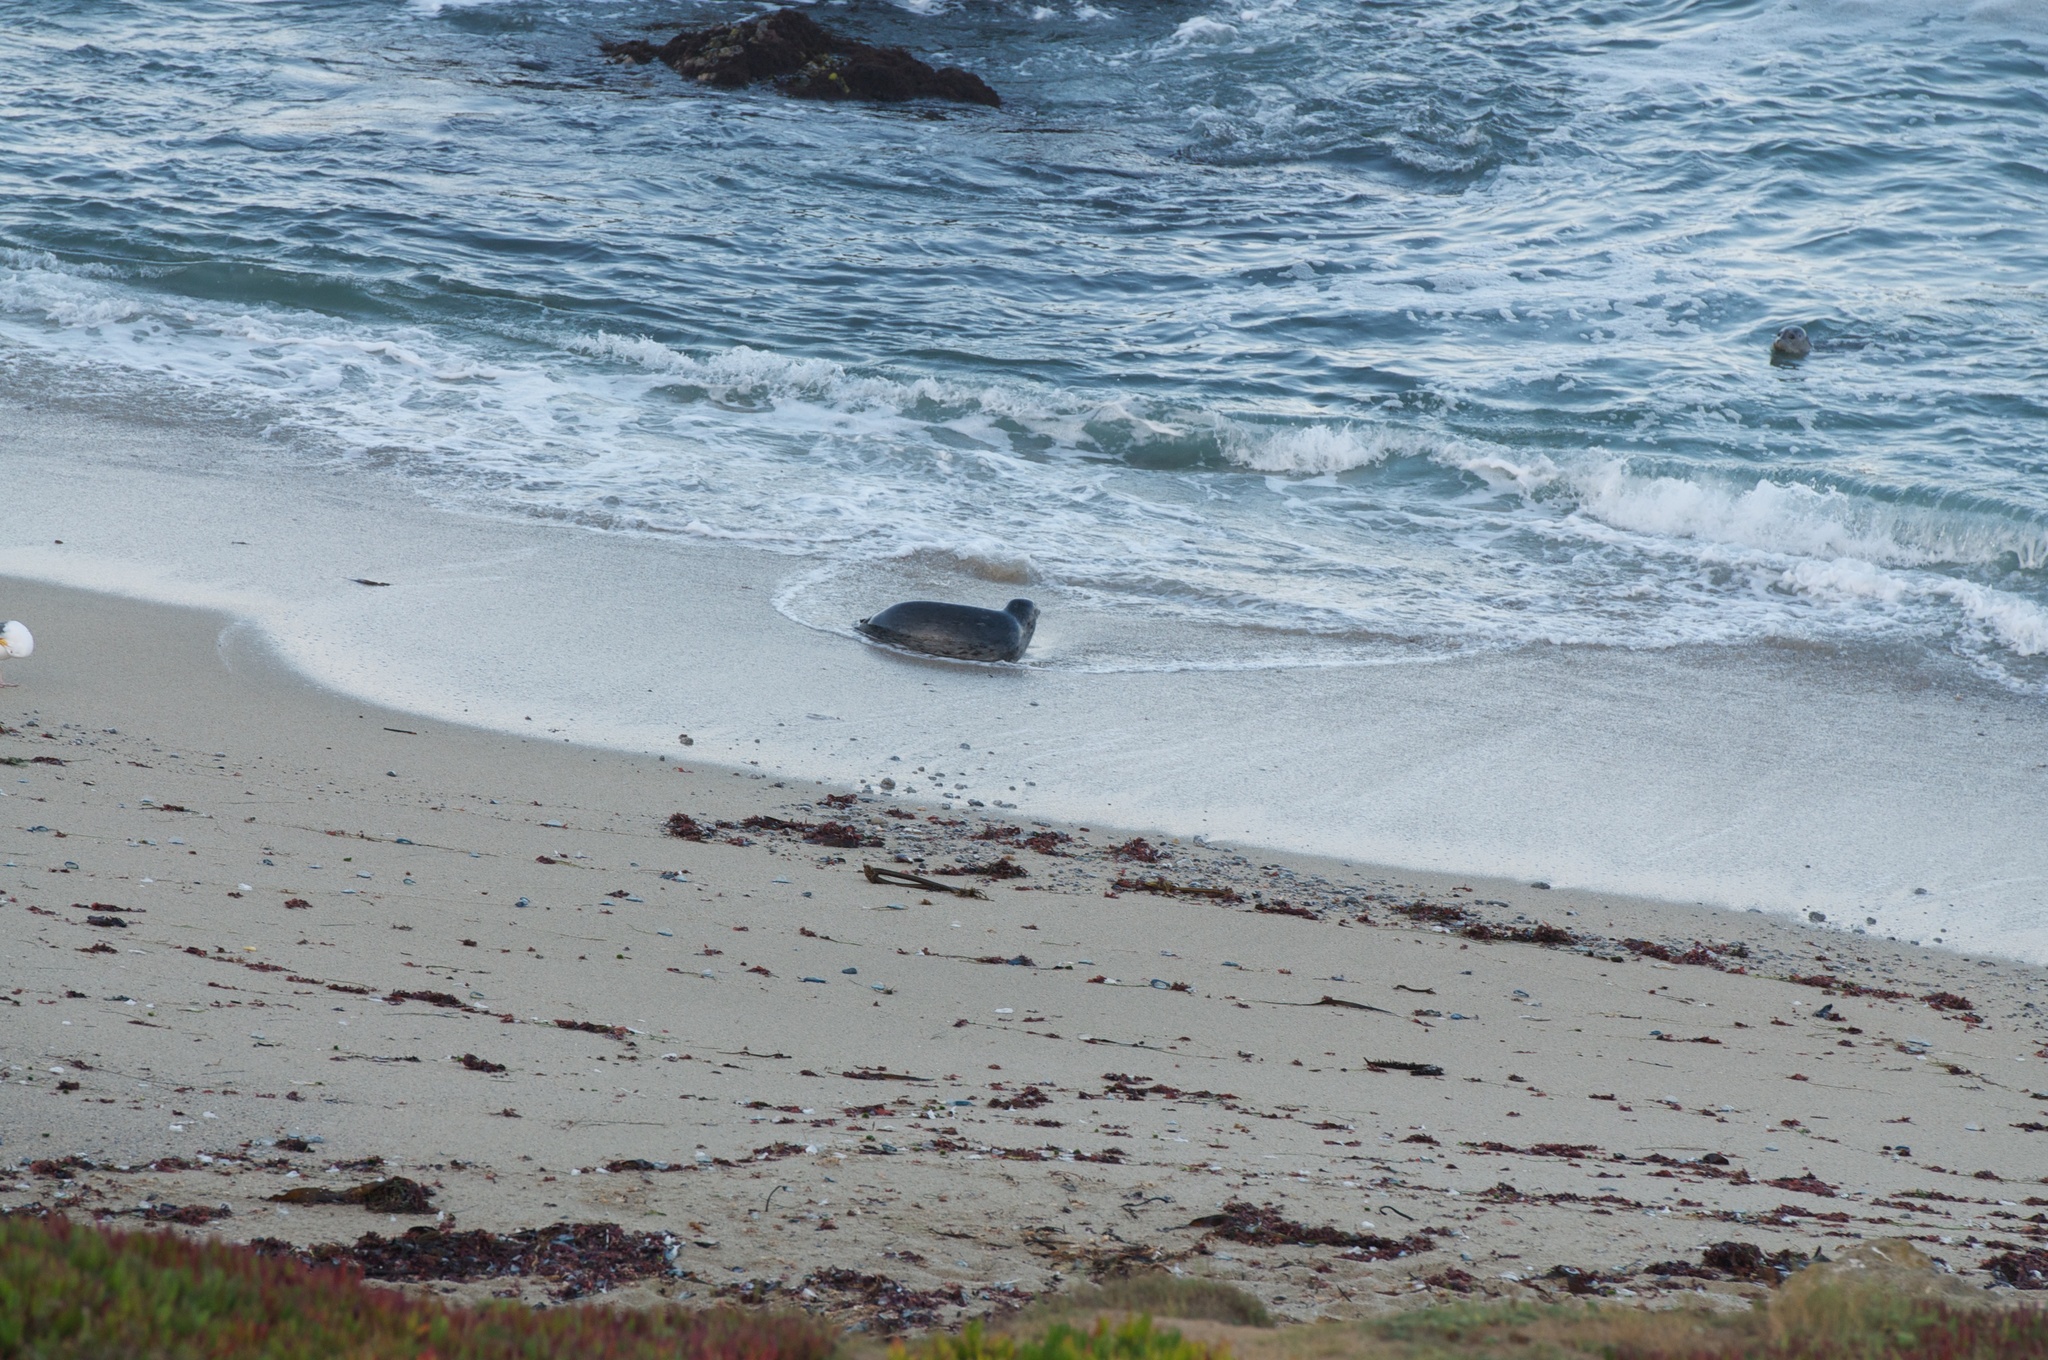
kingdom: Animalia
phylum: Chordata
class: Mammalia
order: Carnivora
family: Phocidae
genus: Phoca
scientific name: Phoca vitulina
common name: Harbor seal
